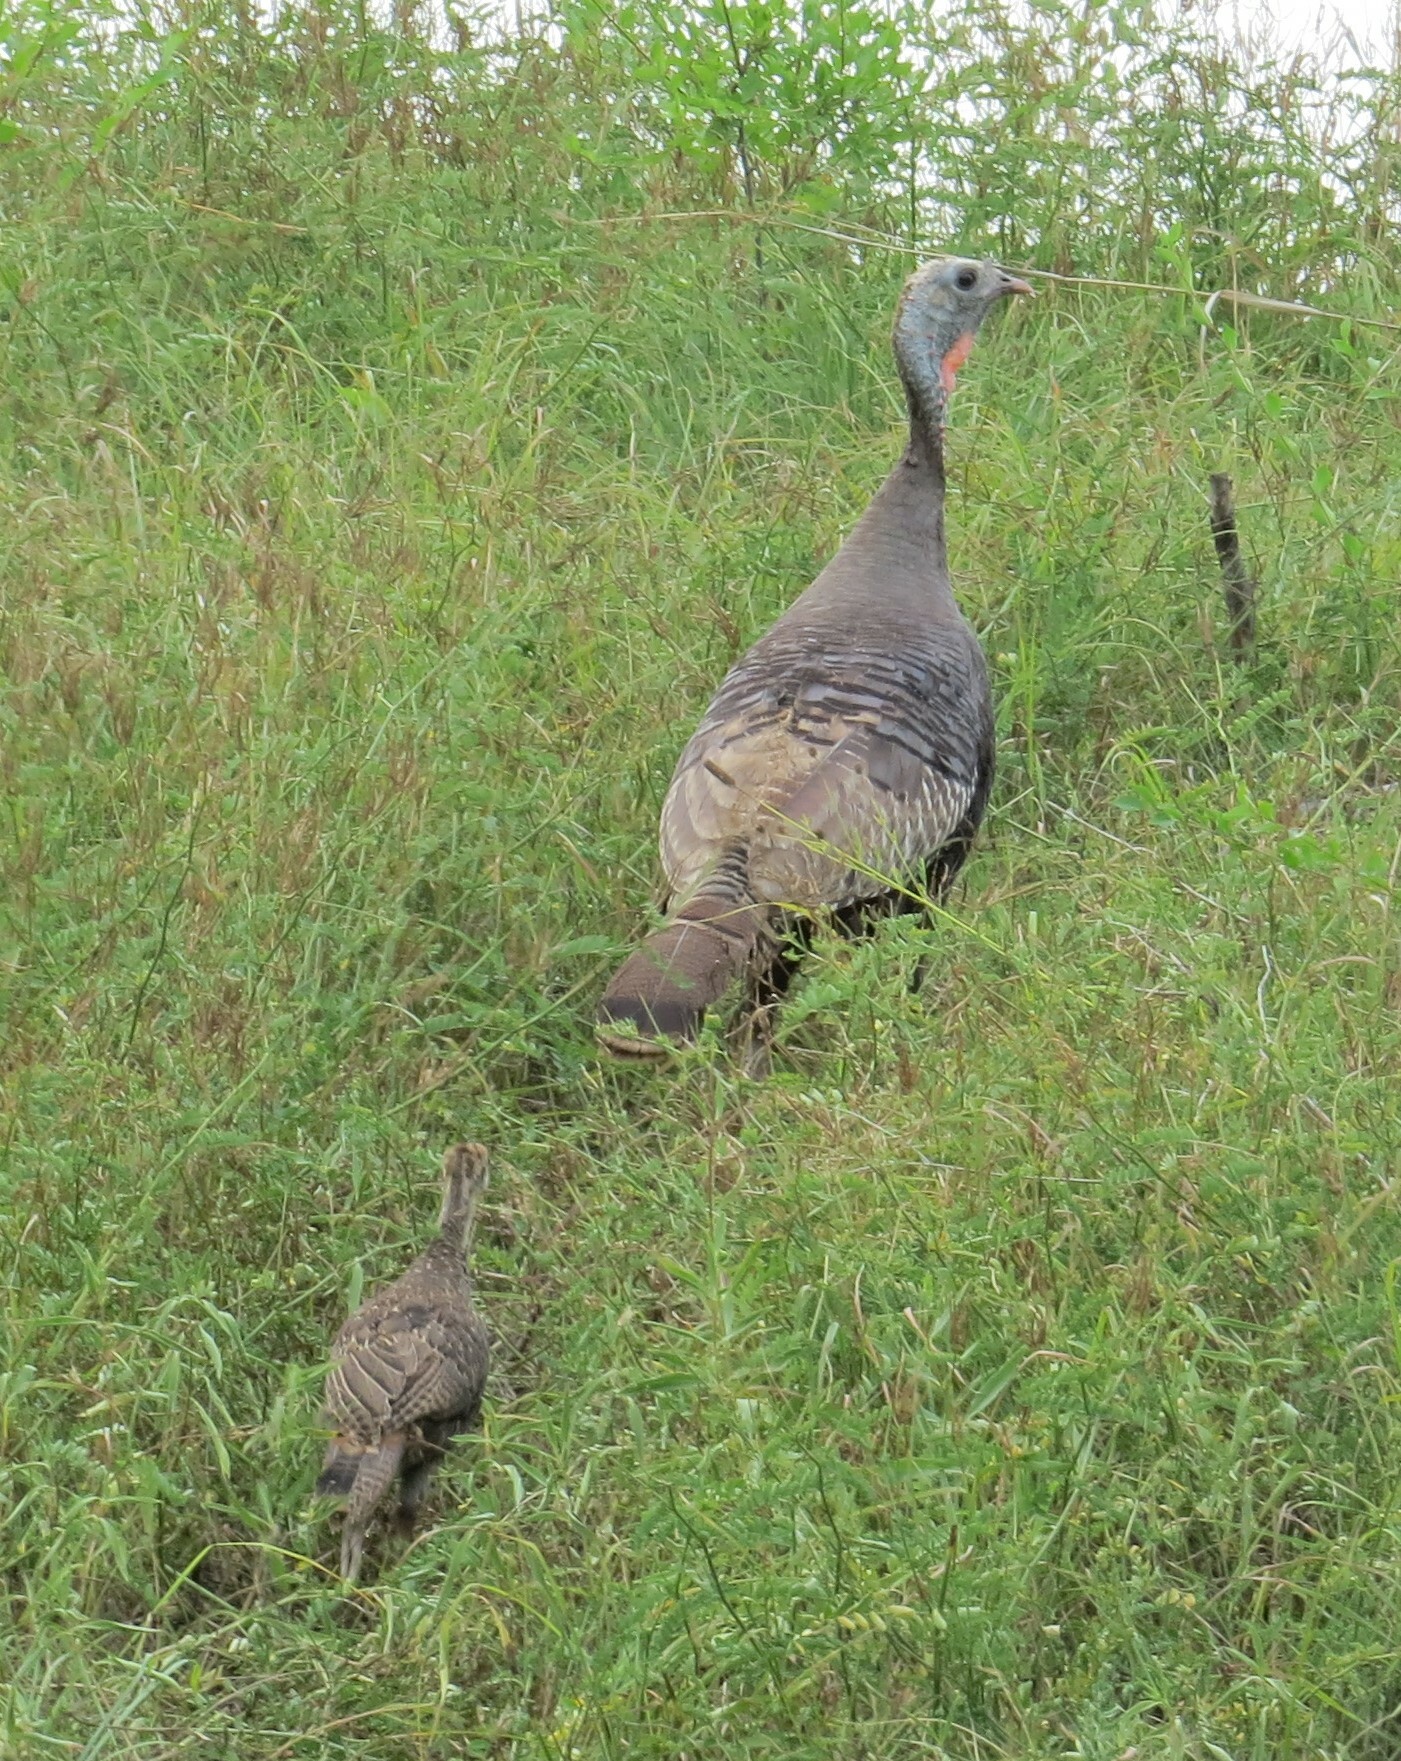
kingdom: Animalia
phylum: Chordata
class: Aves
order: Galliformes
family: Phasianidae
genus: Meleagris
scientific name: Meleagris gallopavo
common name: Wild turkey
